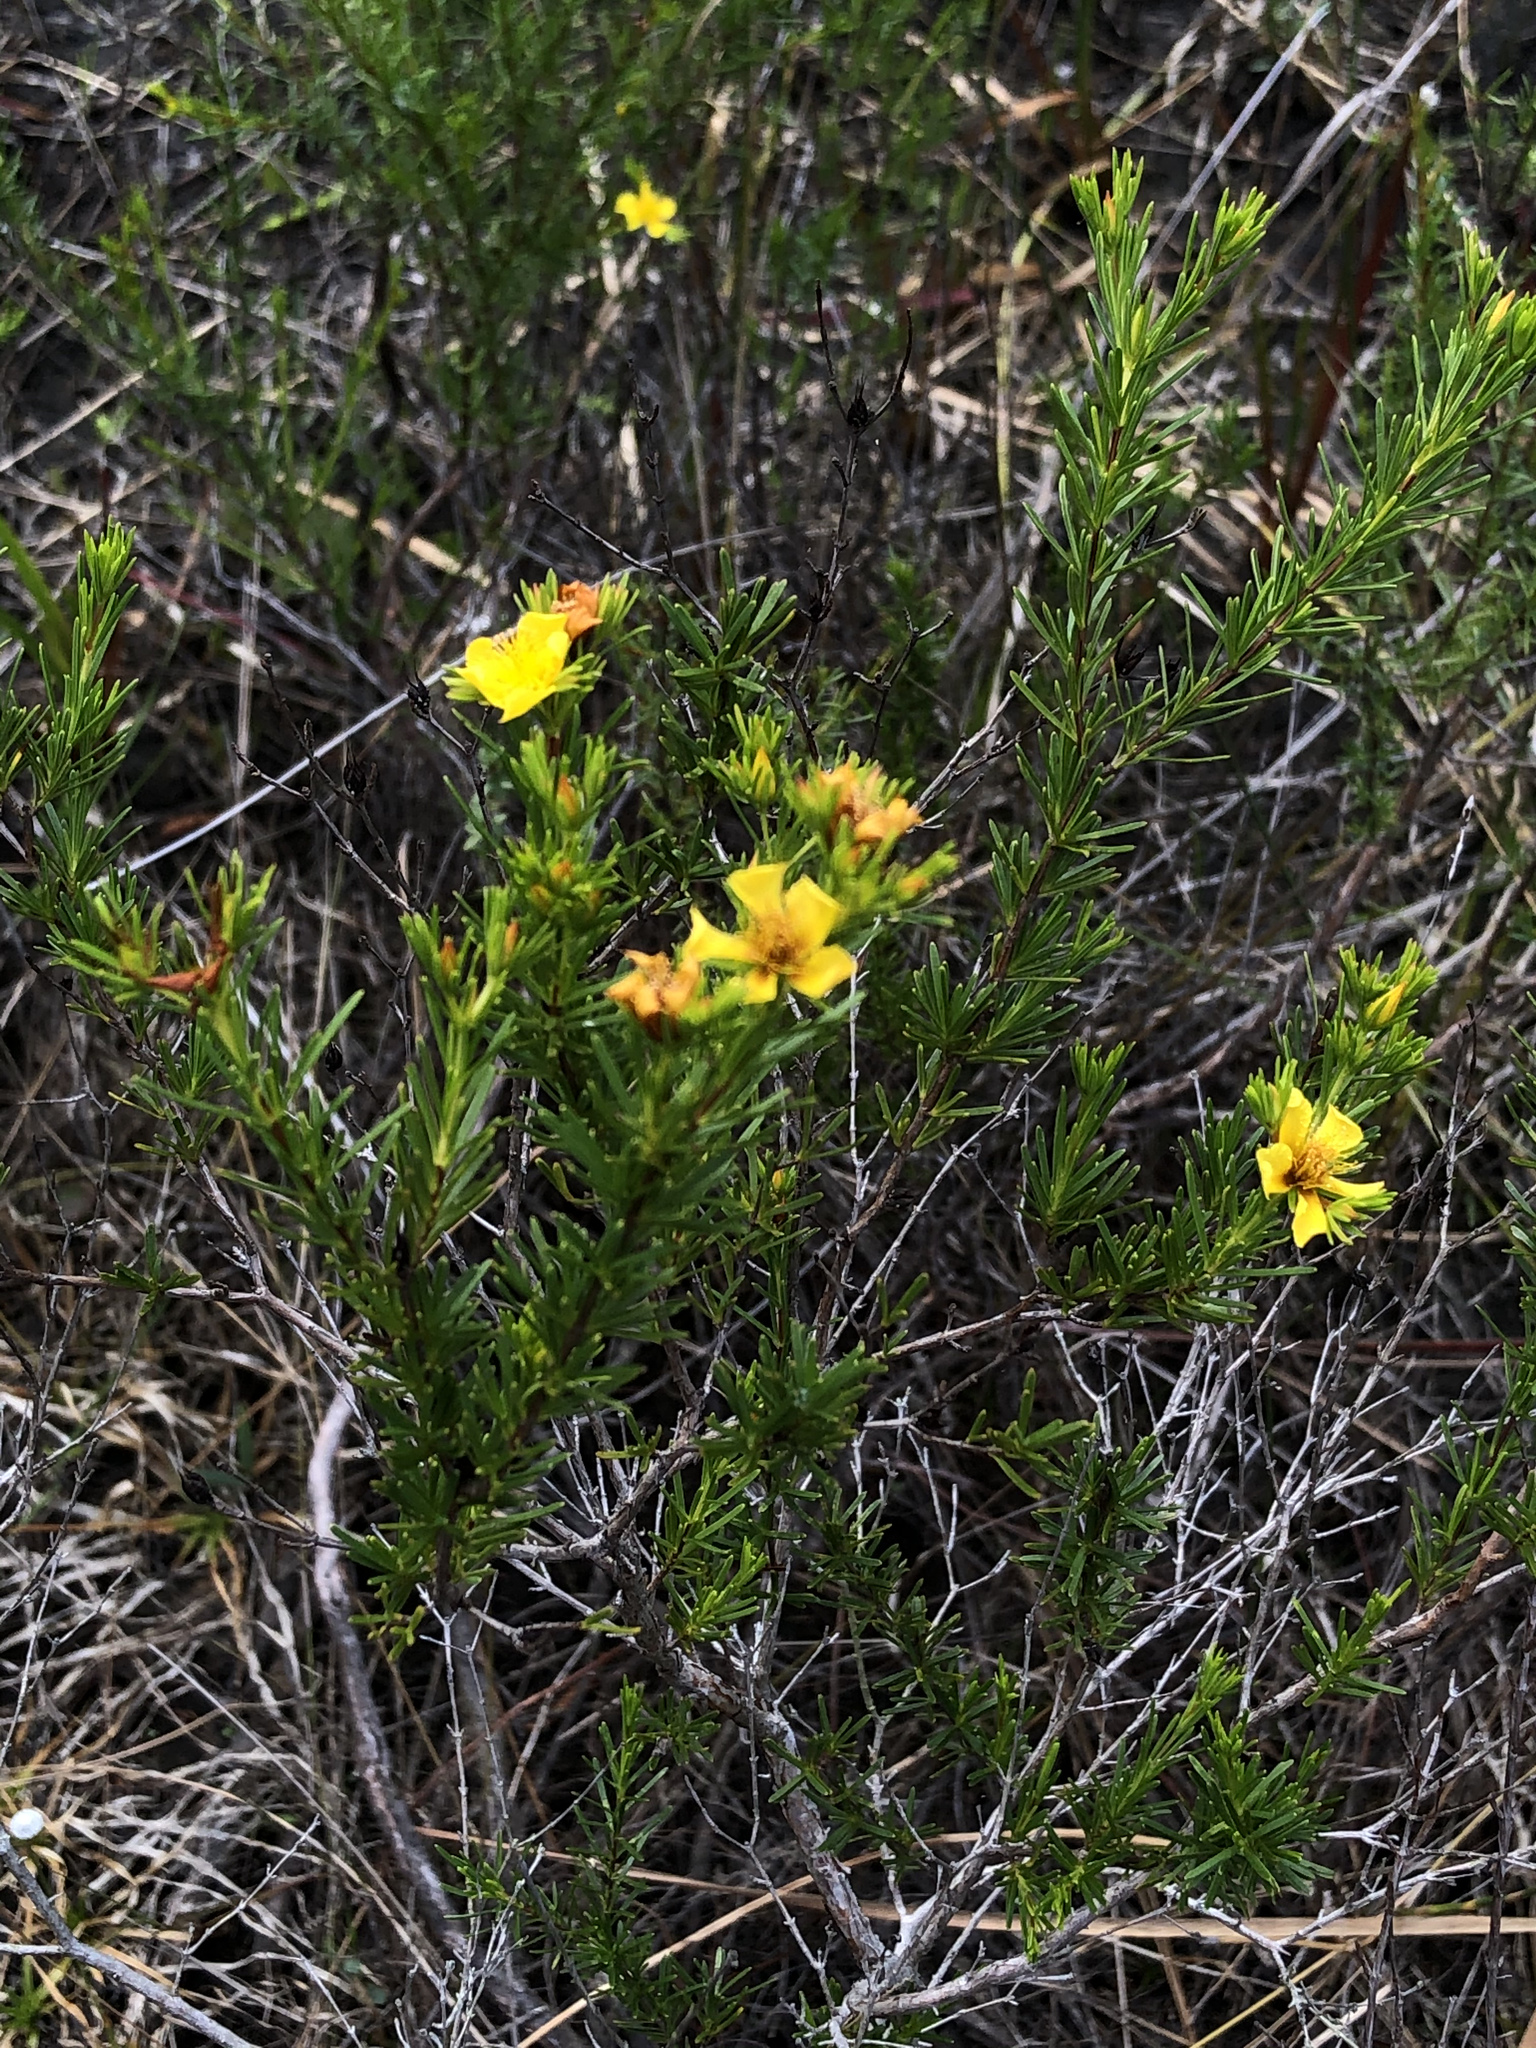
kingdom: Plantae
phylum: Tracheophyta
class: Magnoliopsida
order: Malpighiales
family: Hypericaceae
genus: Hypericum
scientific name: Hypericum fasciculatum
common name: Peelbark st. john's wort
